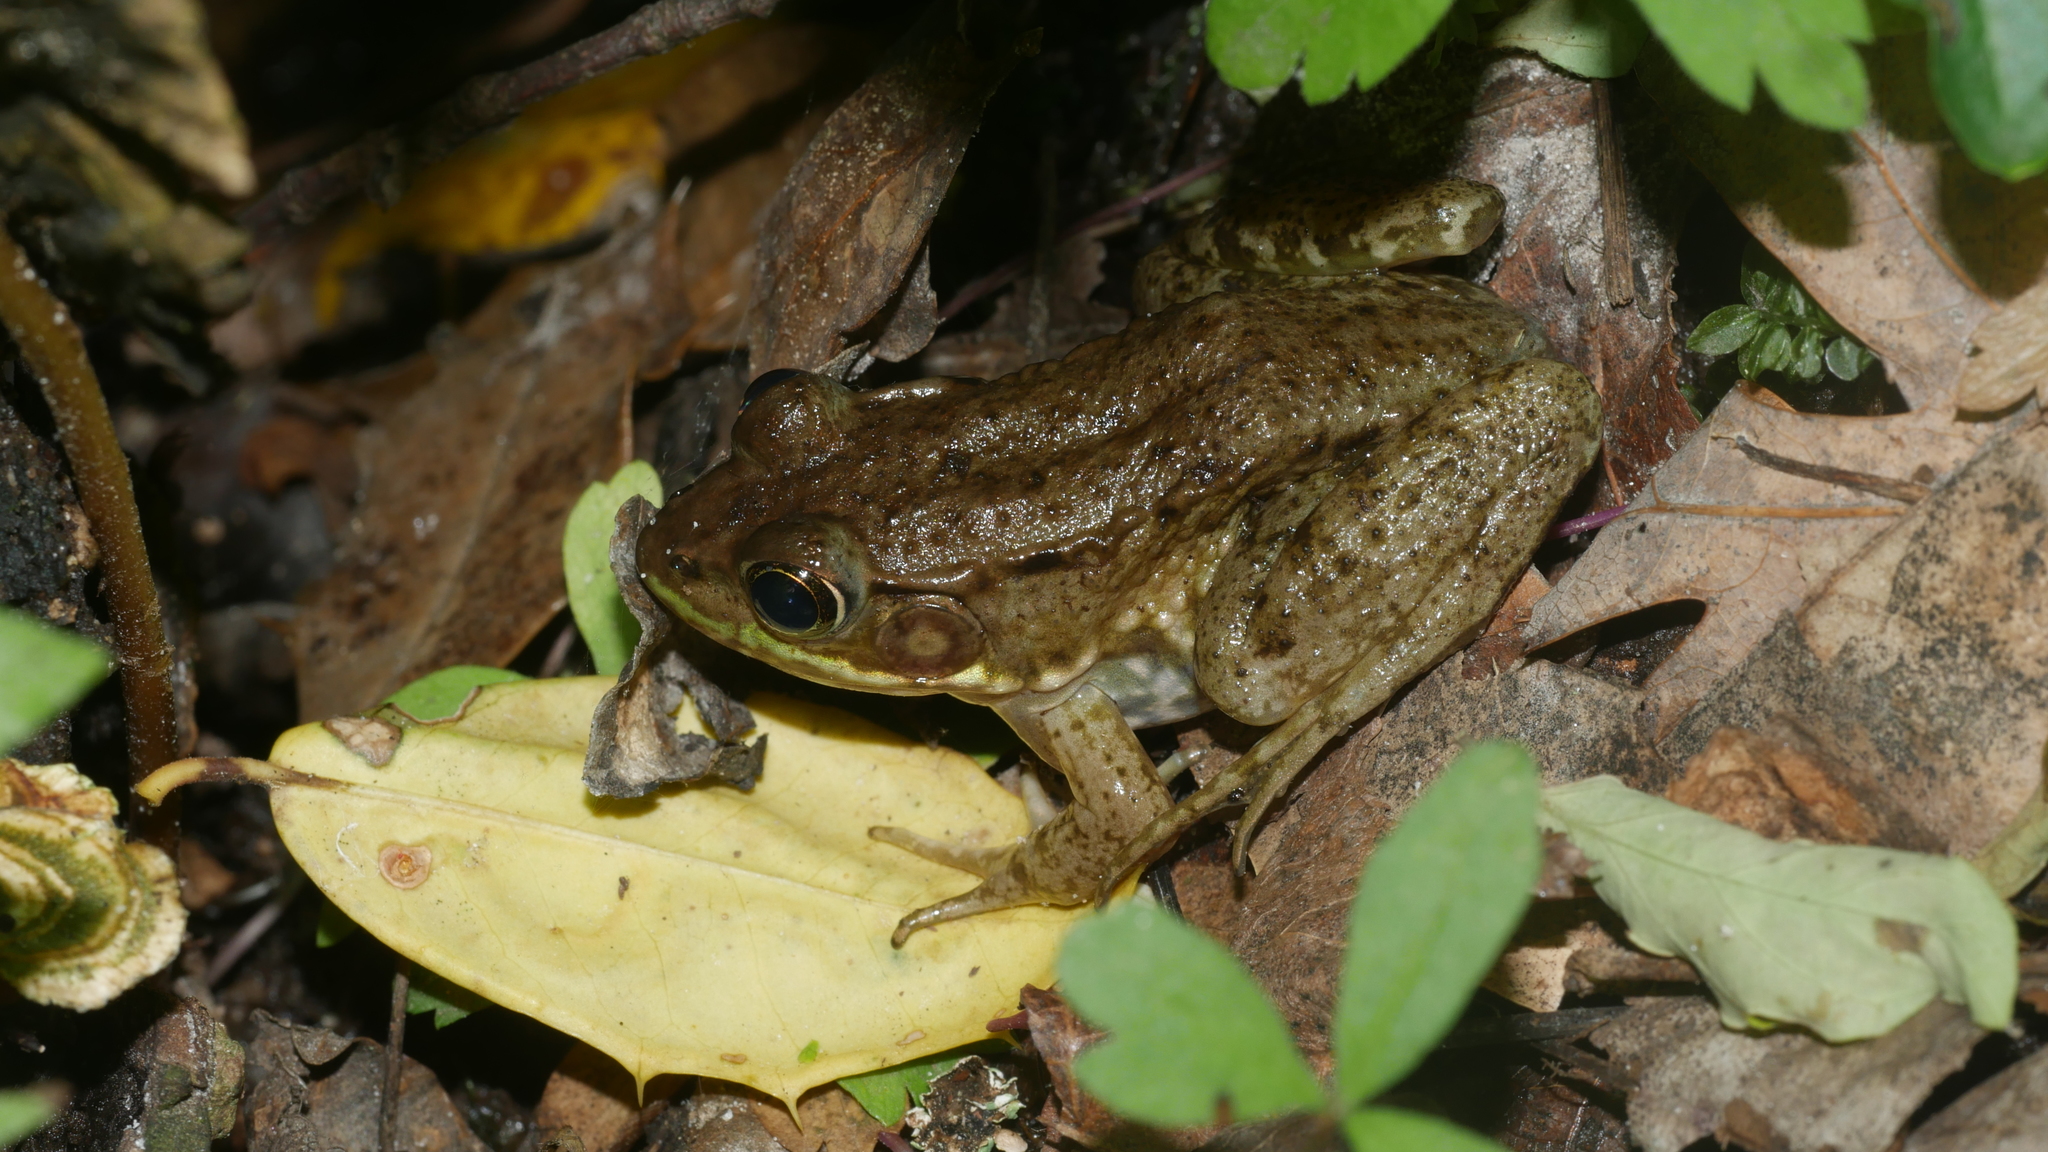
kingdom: Animalia
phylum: Chordata
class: Amphibia
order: Anura
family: Ranidae
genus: Lithobates
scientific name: Lithobates clamitans
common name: Green frog
